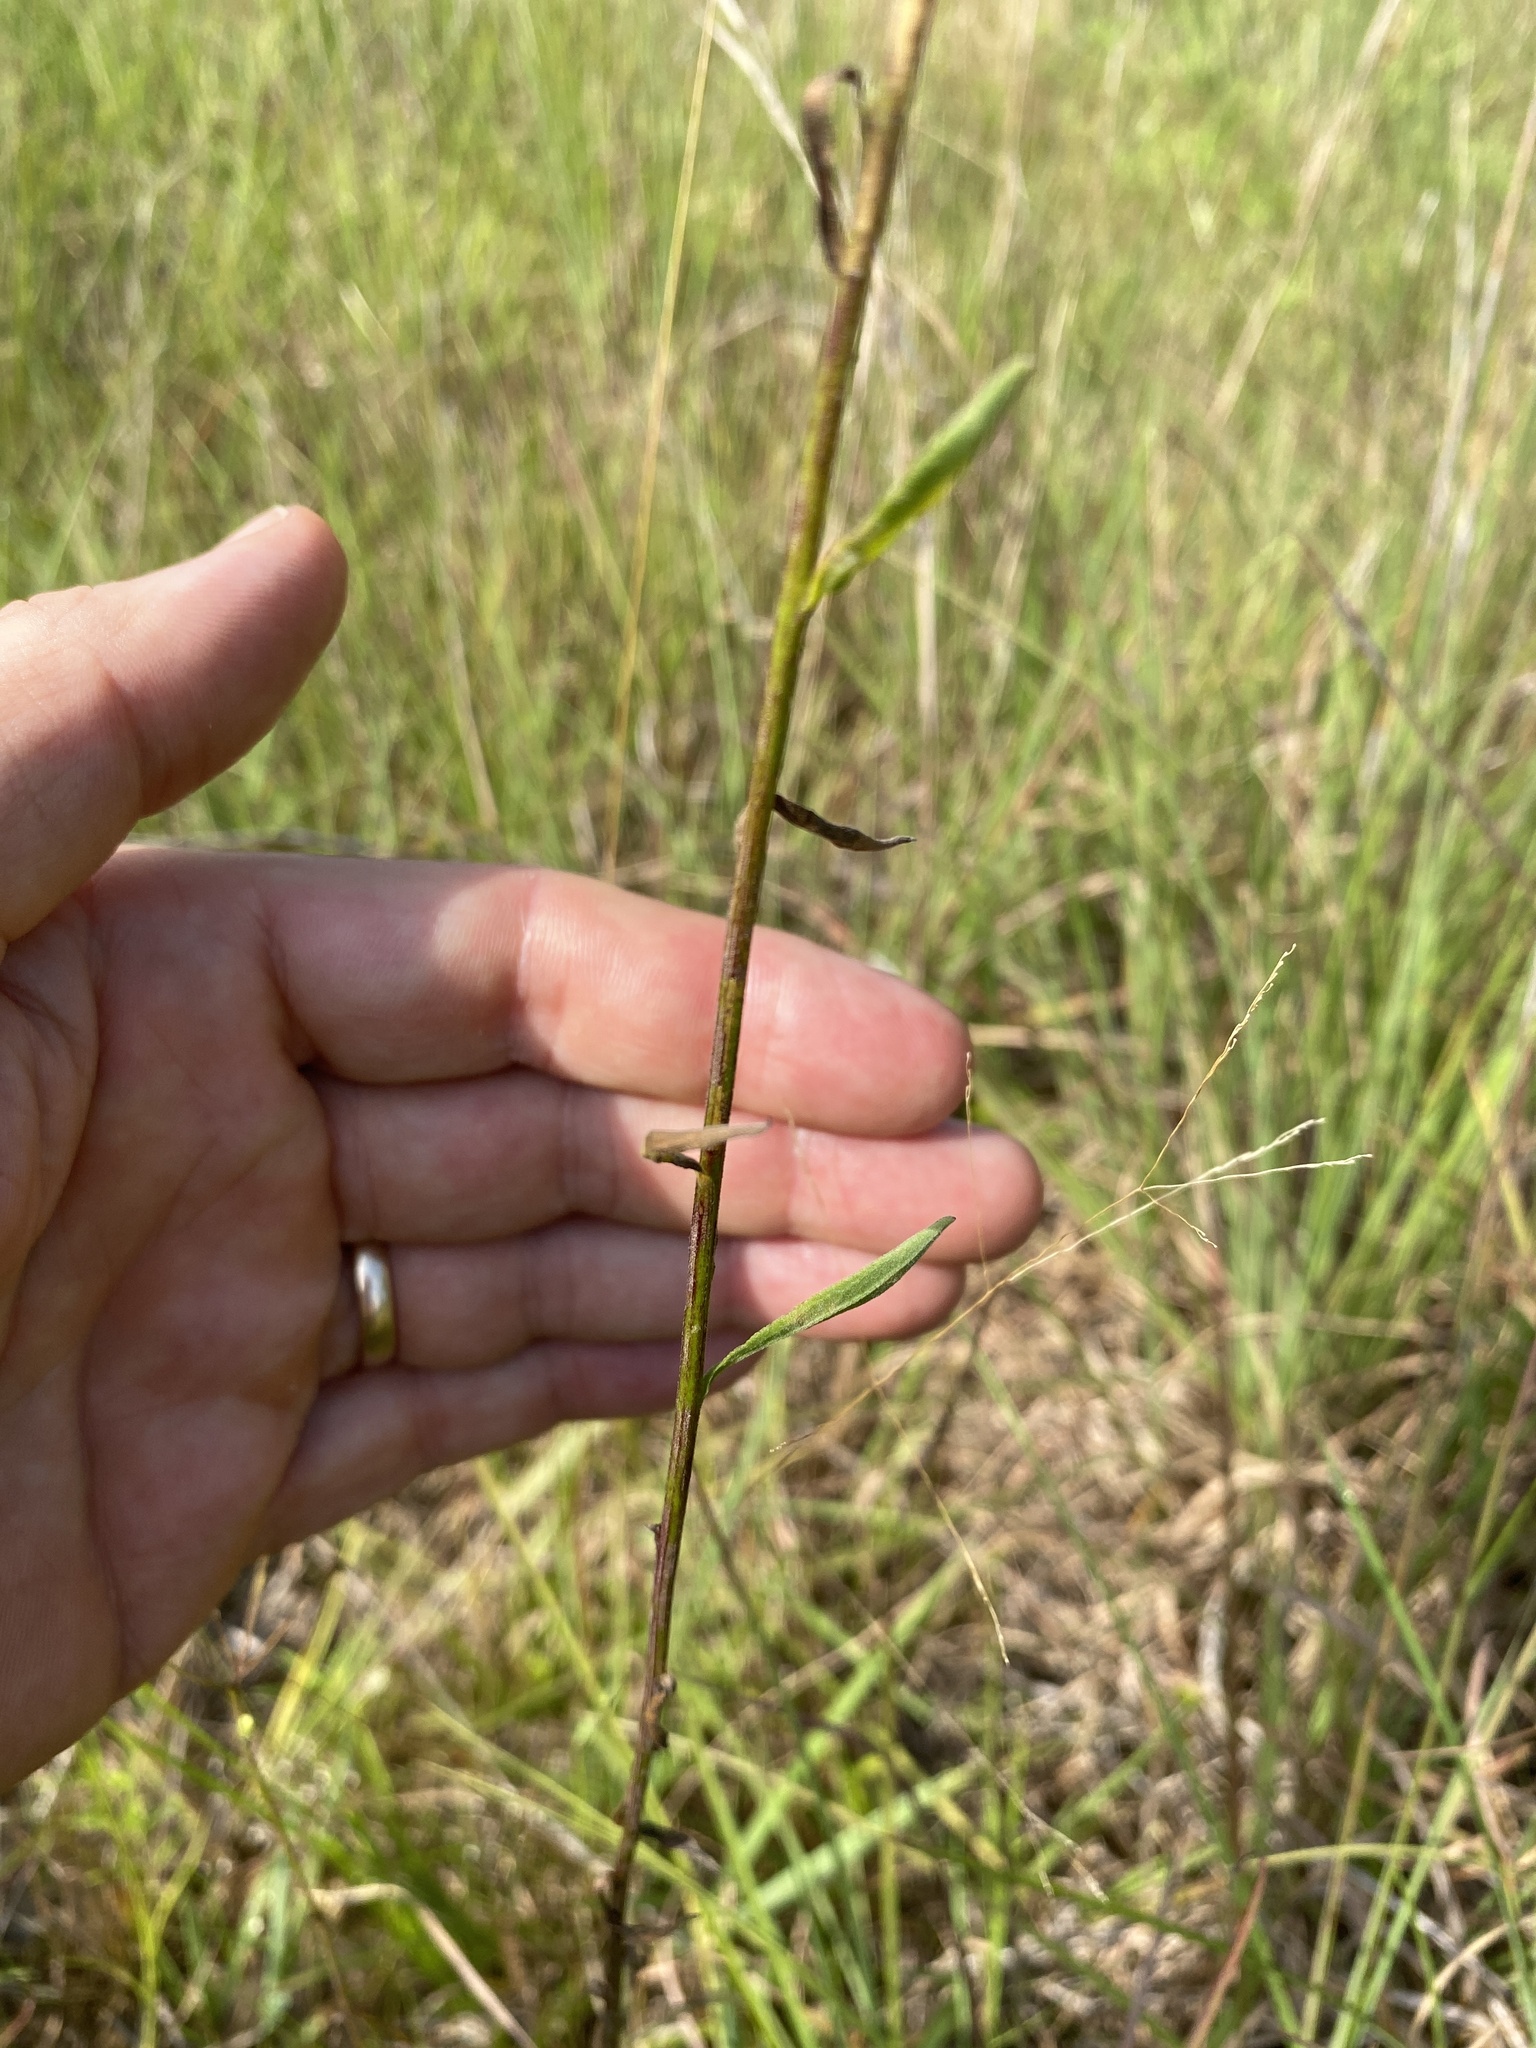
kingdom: Plantae
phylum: Tracheophyta
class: Magnoliopsida
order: Asterales
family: Asteraceae
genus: Erigeron
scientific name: Erigeron strigosus
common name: Common eastern fleabane
